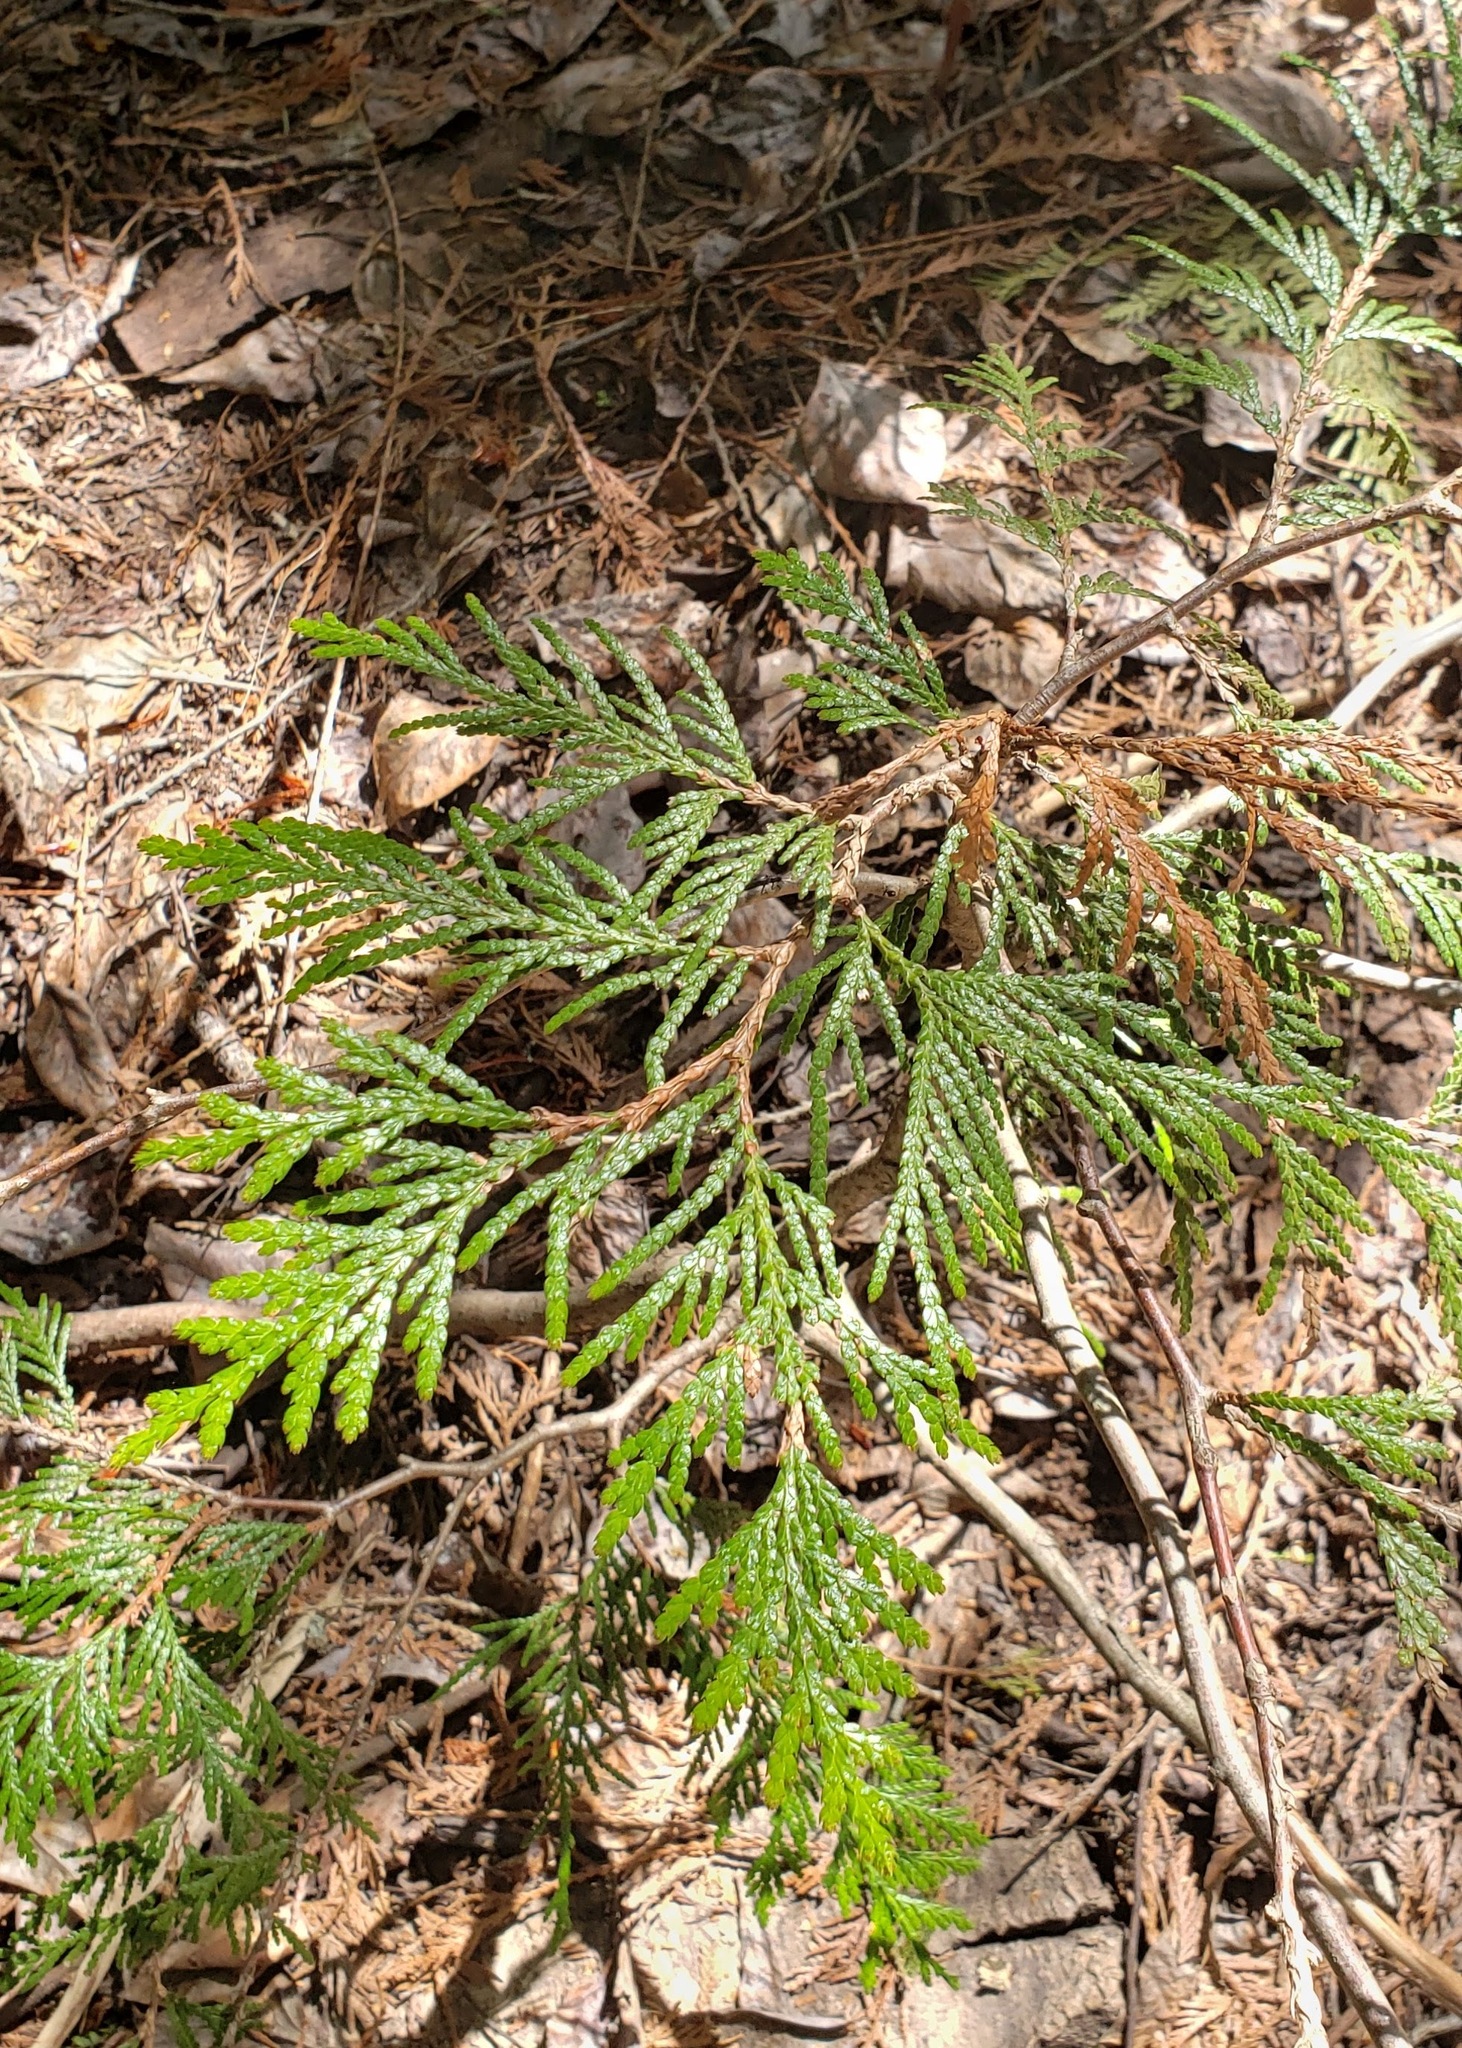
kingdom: Plantae
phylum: Tracheophyta
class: Pinopsida
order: Pinales
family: Cupressaceae
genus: Thuja
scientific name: Thuja plicata
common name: Western red-cedar
